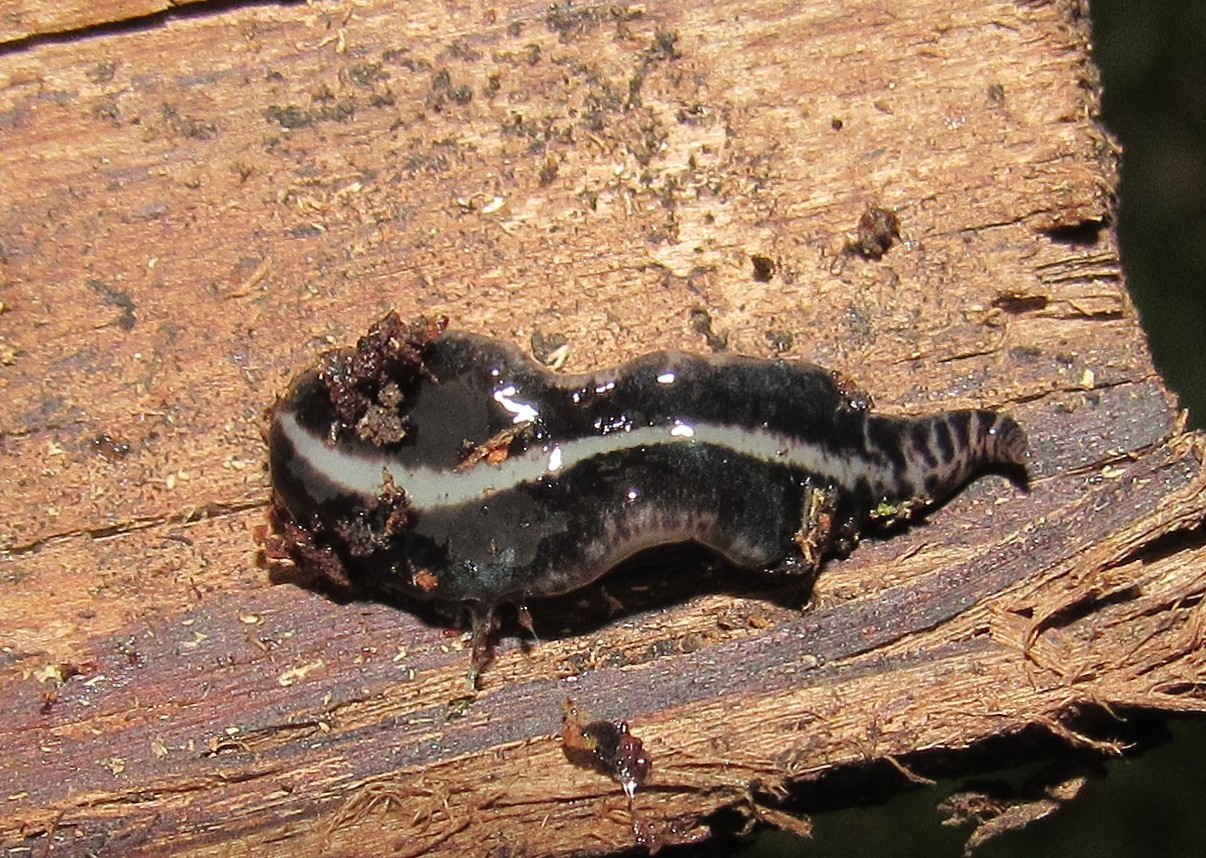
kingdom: Animalia
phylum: Platyhelminthes
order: Tricladida
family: Geoplanidae
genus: Geoplana
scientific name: Geoplana quagga
